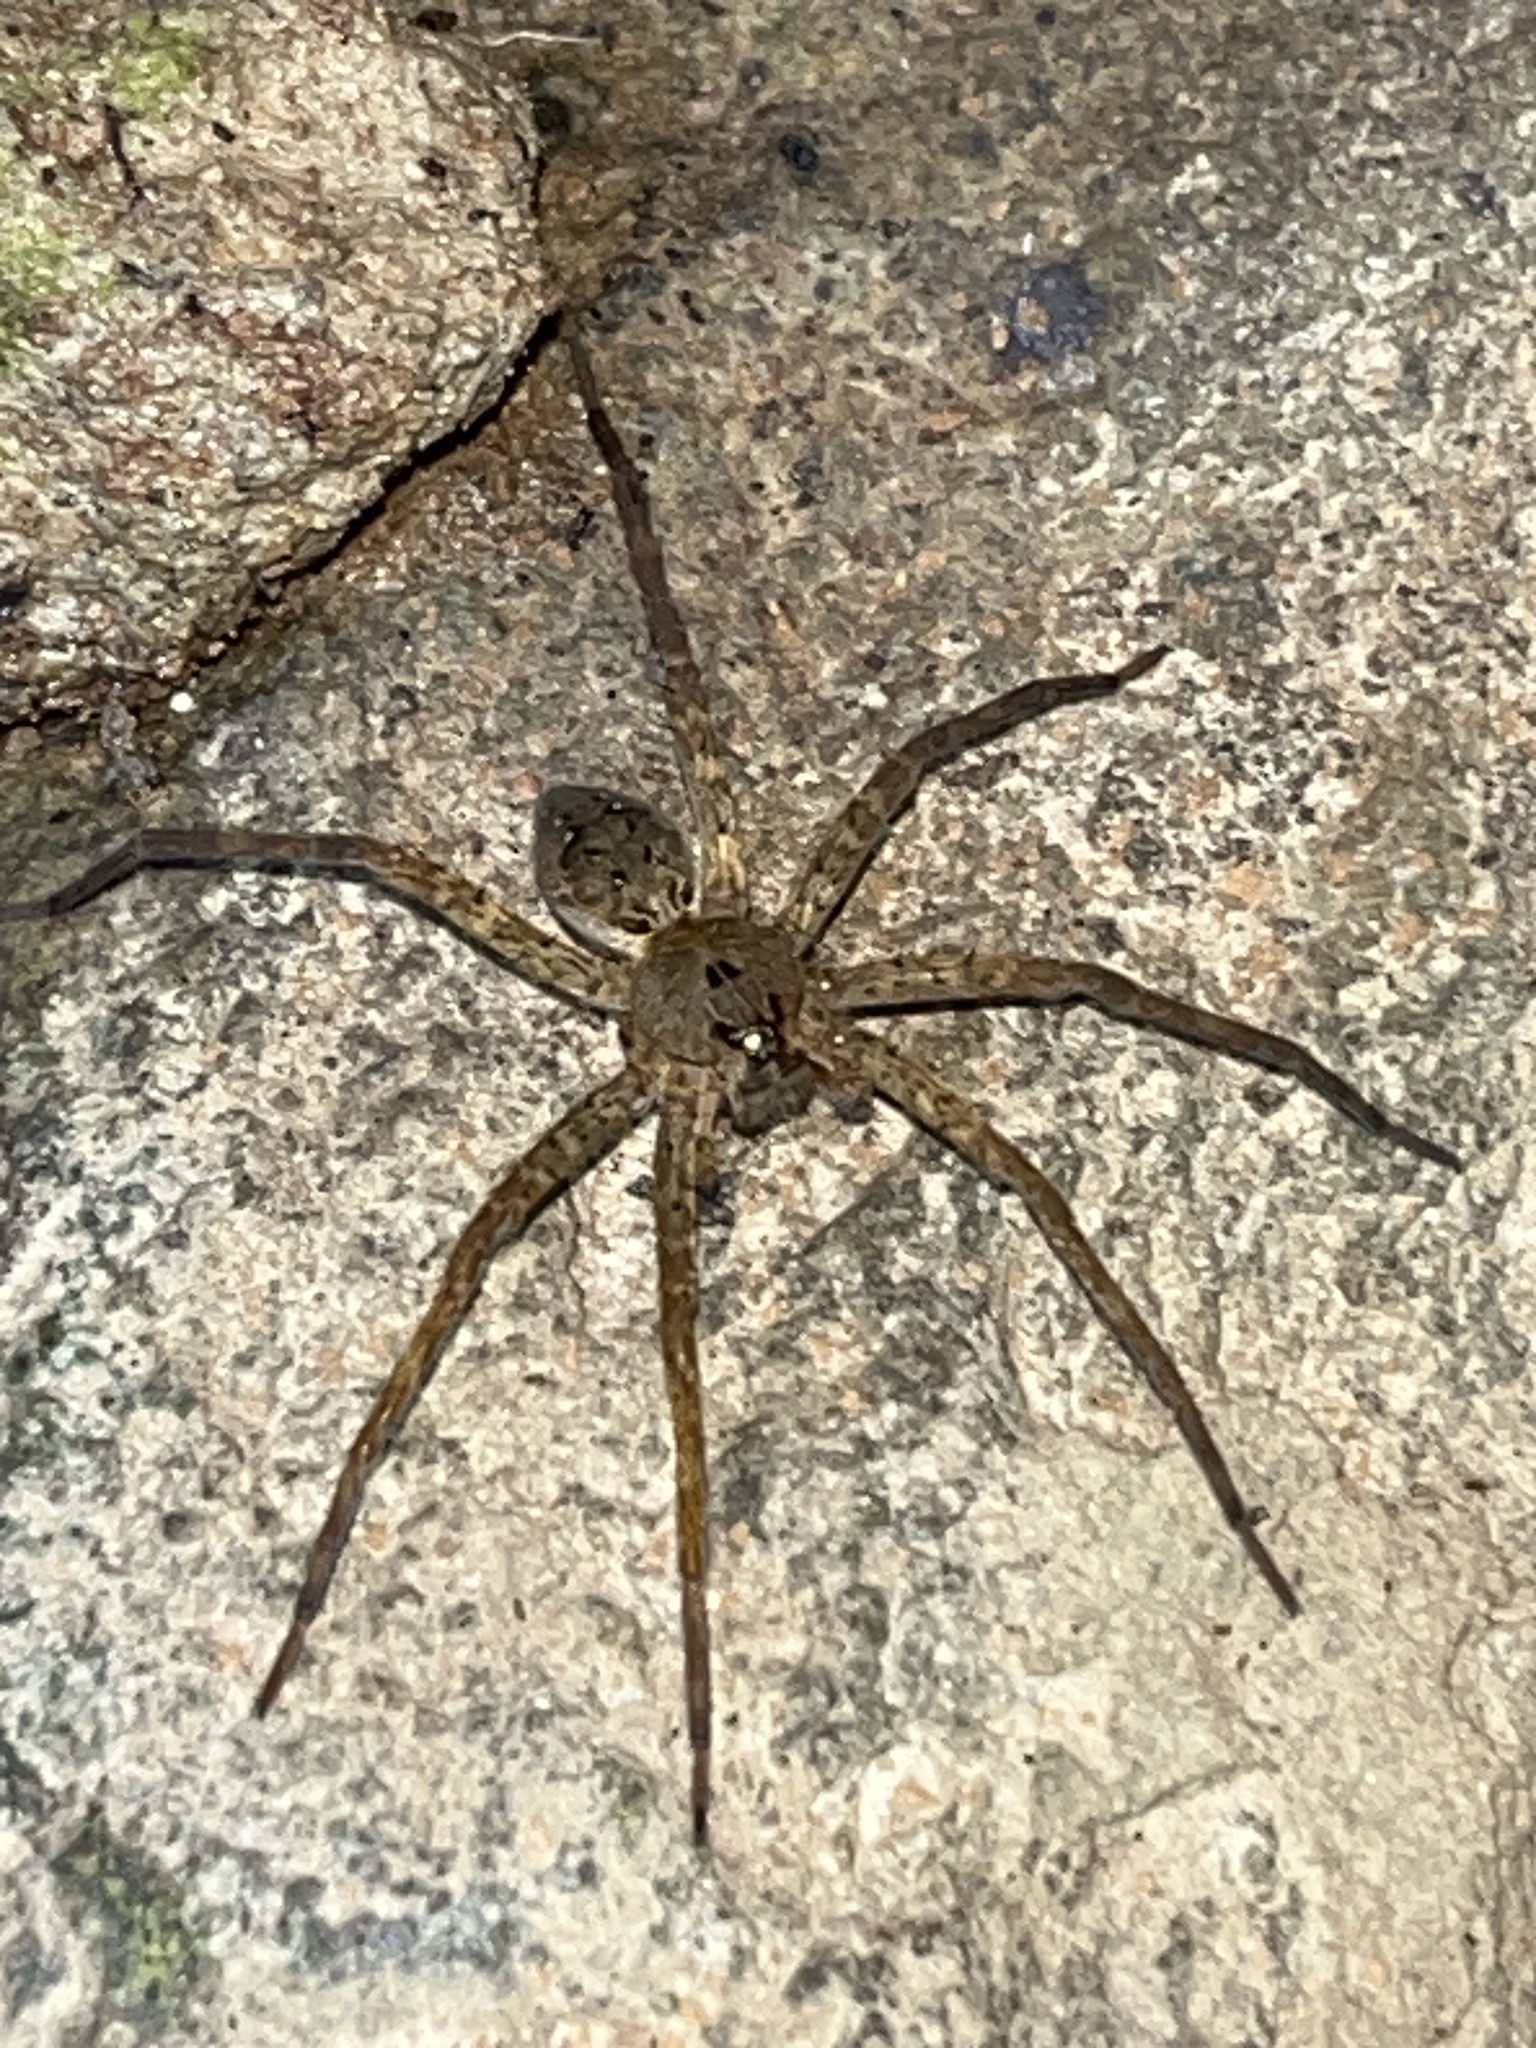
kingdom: Animalia
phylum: Arthropoda
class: Arachnida
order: Araneae
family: Pisauridae
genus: Dolomedes
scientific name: Dolomedes vittatus
